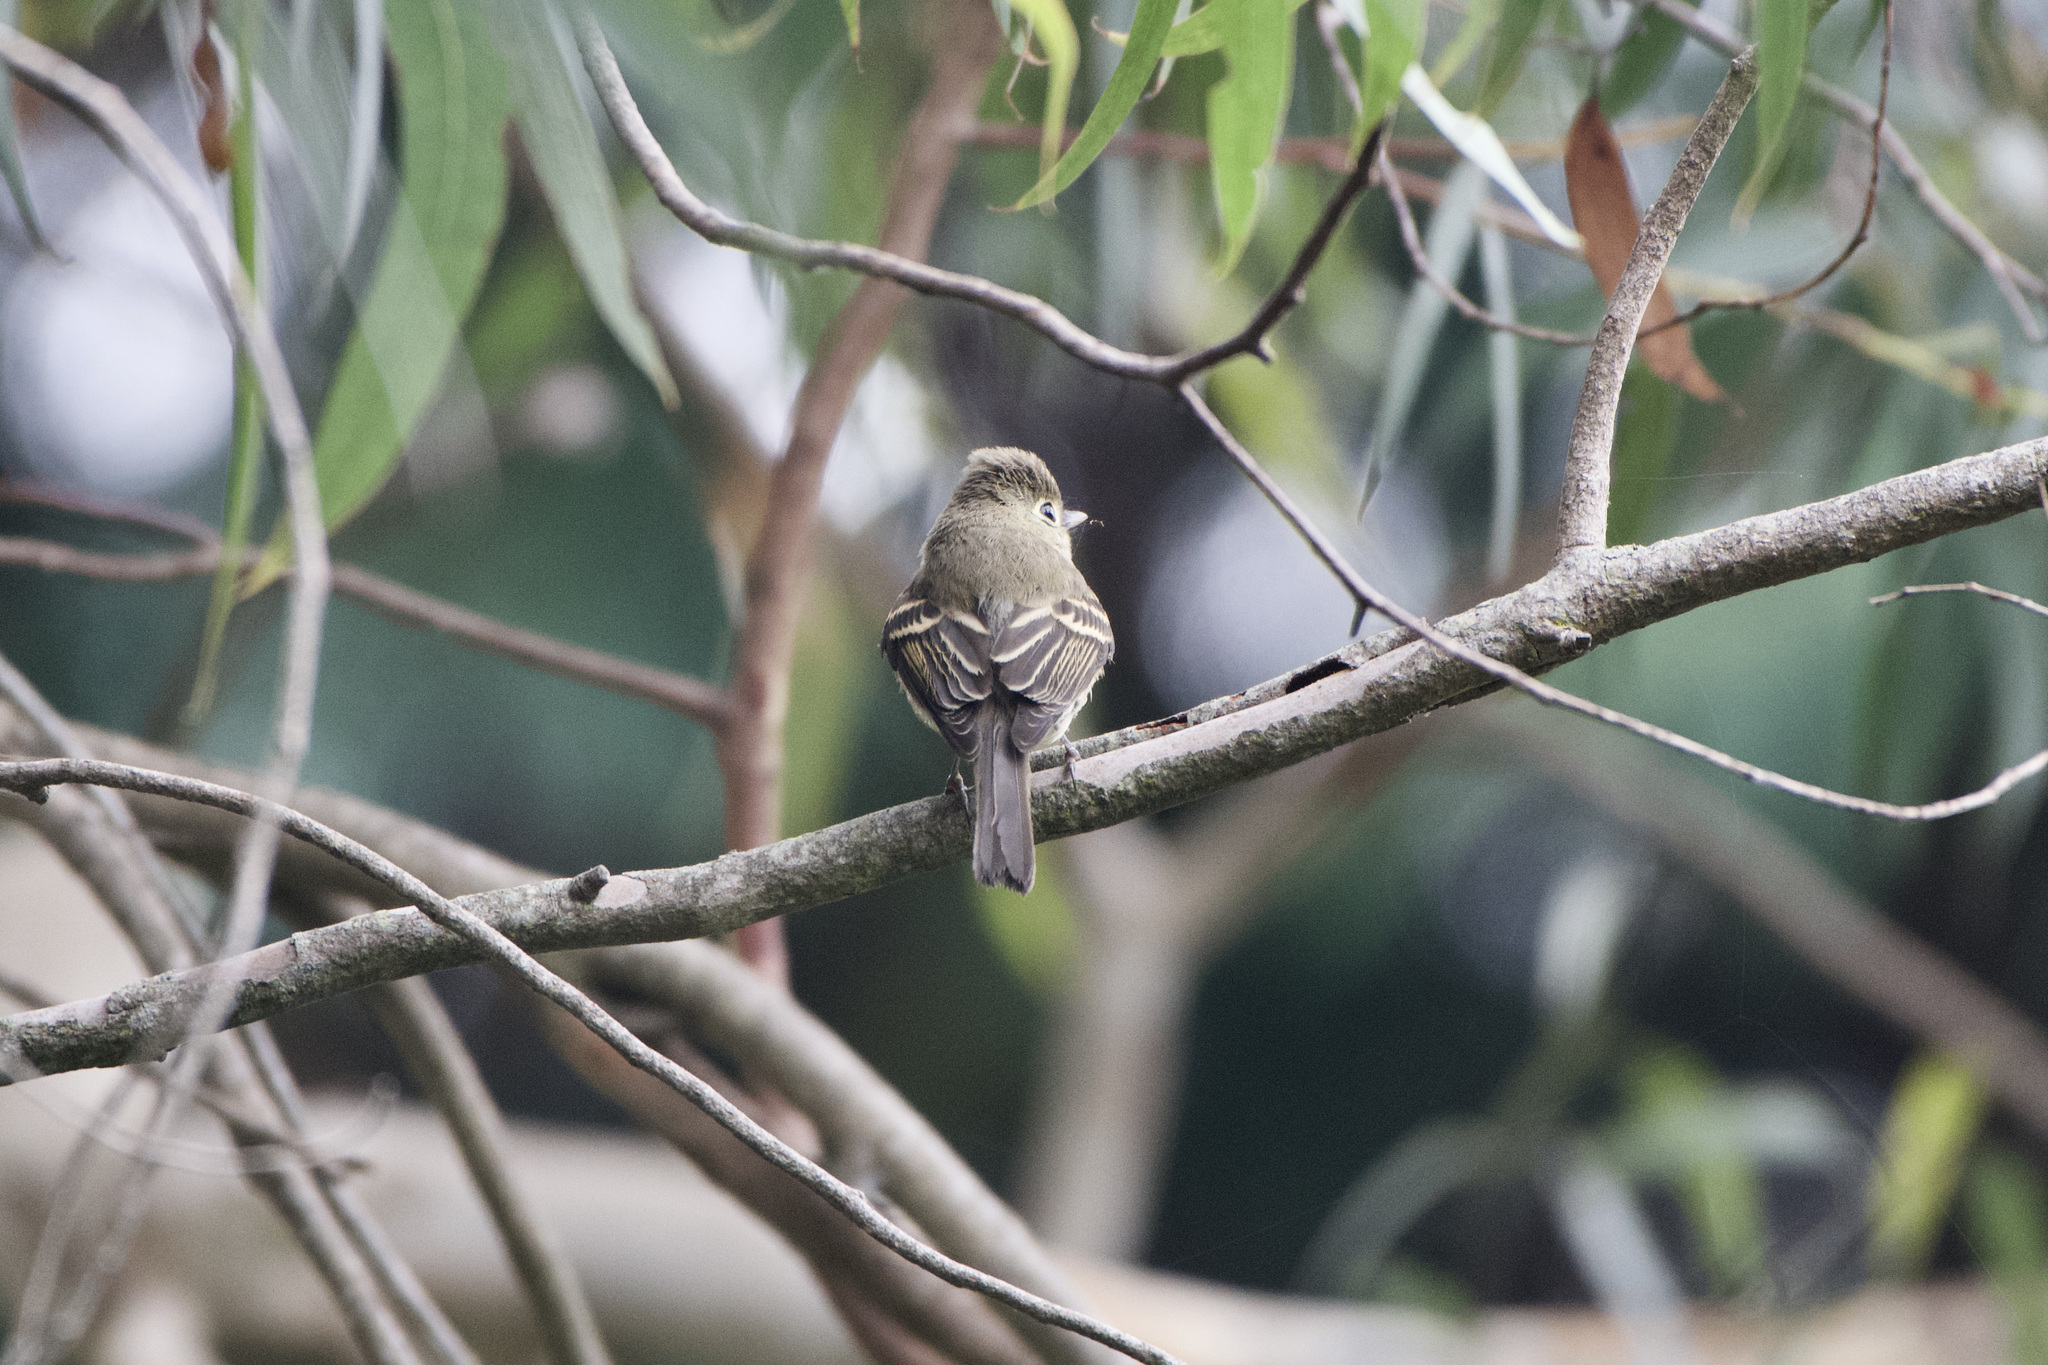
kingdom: Animalia
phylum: Chordata
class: Aves
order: Passeriformes
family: Tyrannidae
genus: Empidonax
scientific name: Empidonax difficilis
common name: Pacific-slope flycatcher
